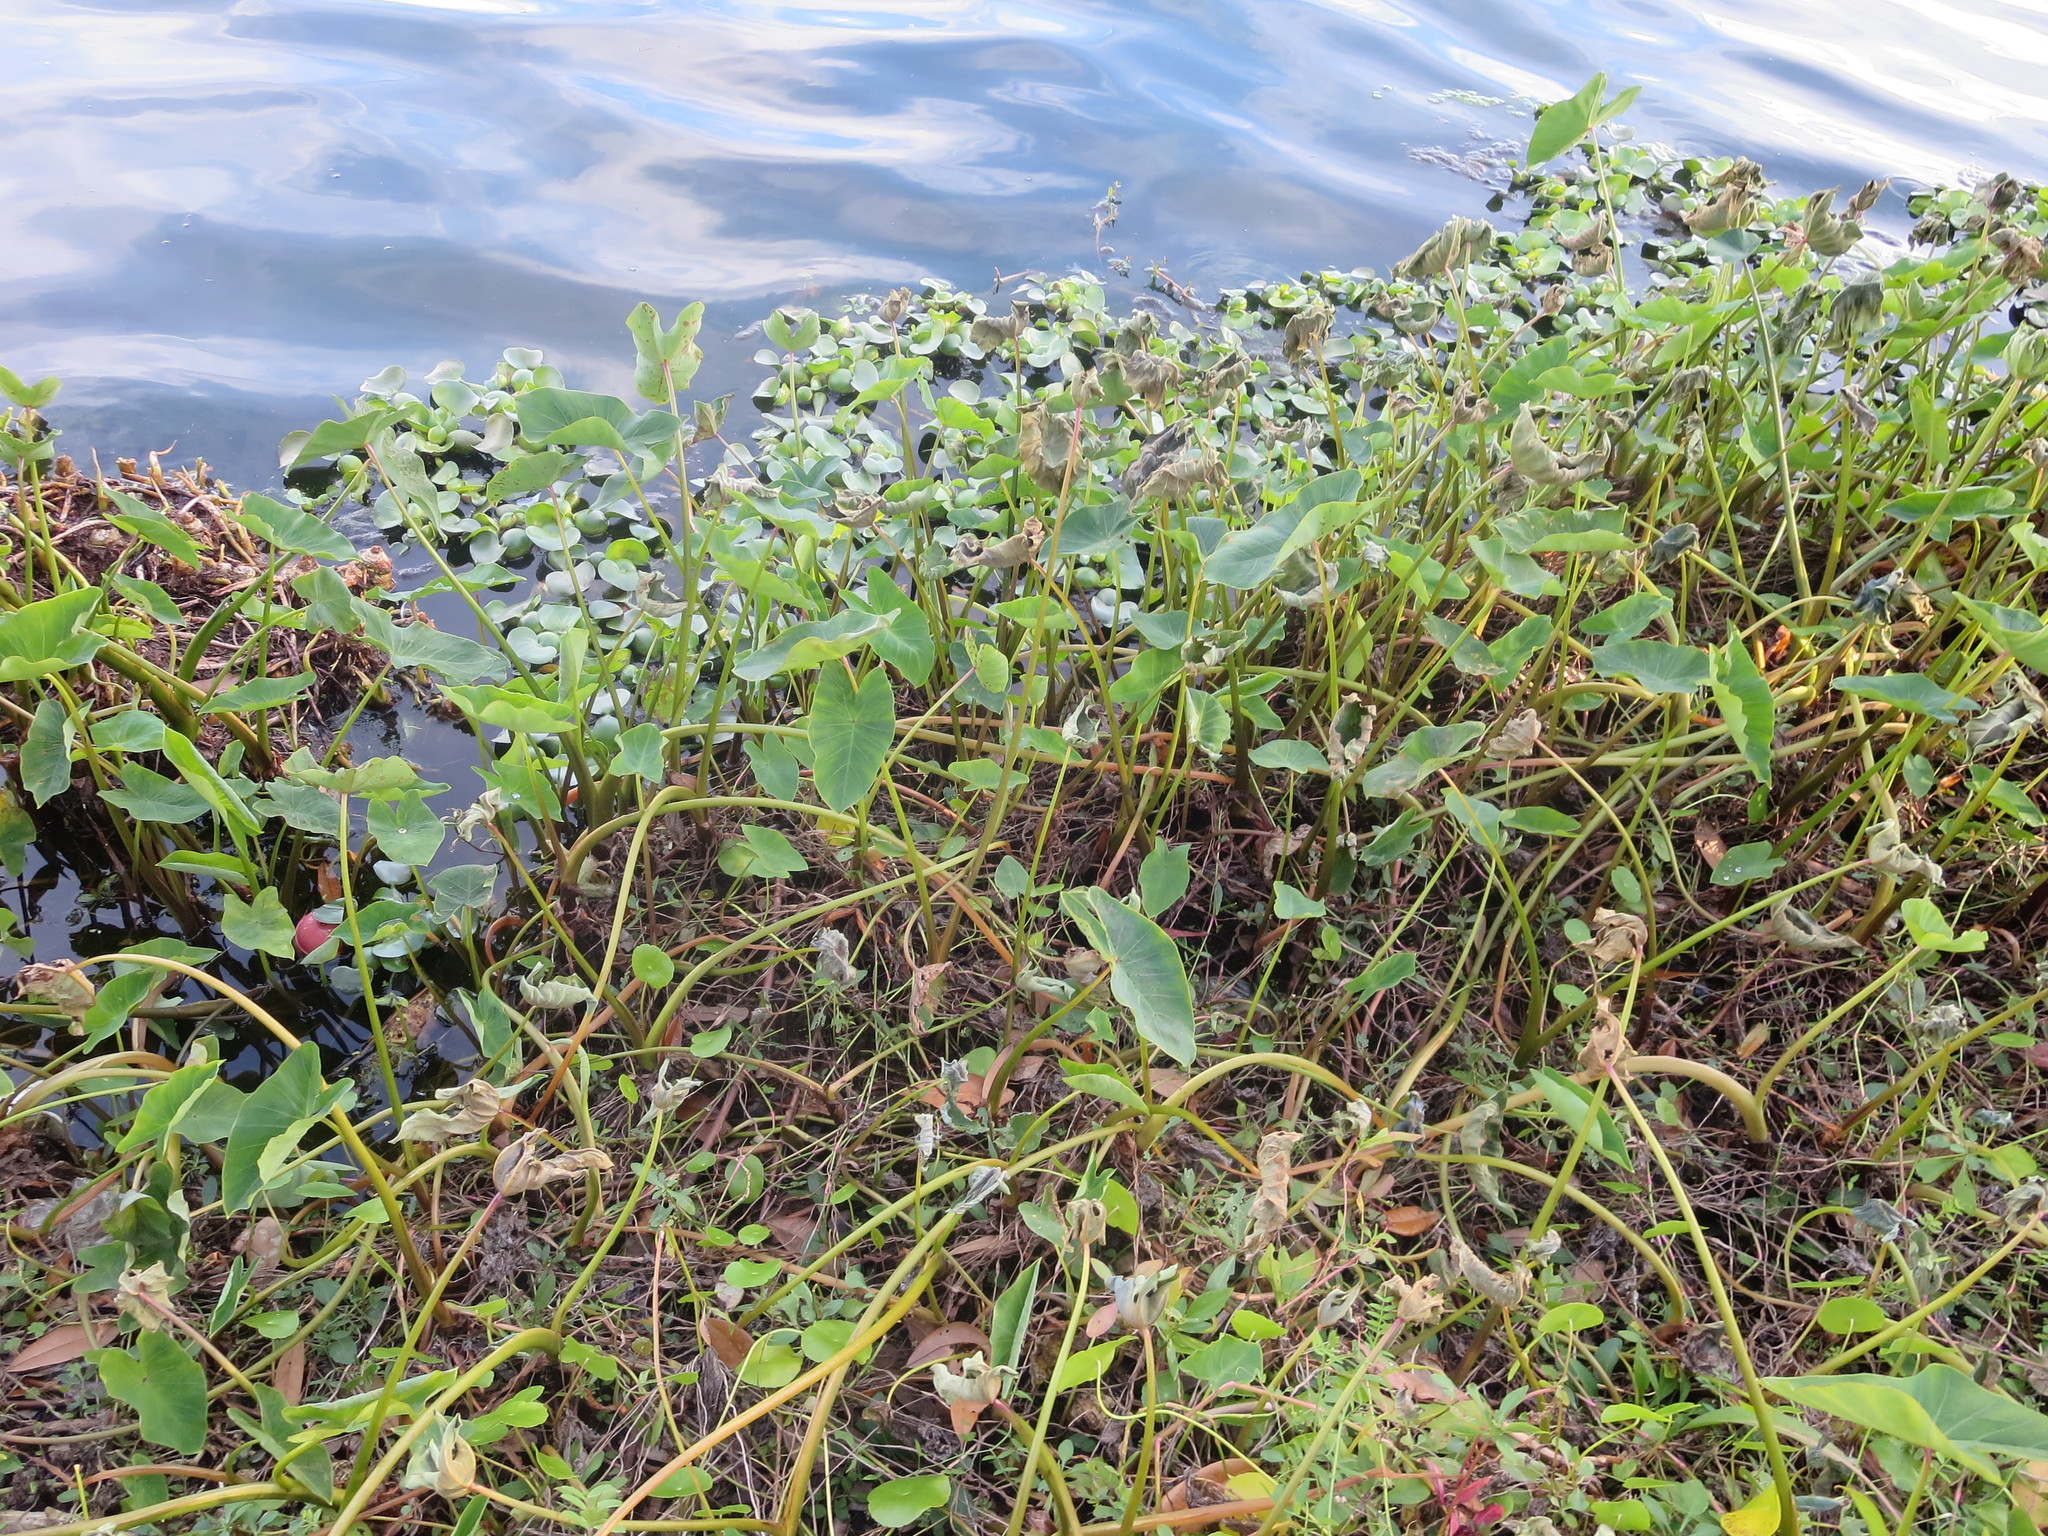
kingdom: Plantae
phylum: Tracheophyta
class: Liliopsida
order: Alismatales
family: Araceae
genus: Colocasia
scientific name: Colocasia esculenta
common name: Taro
